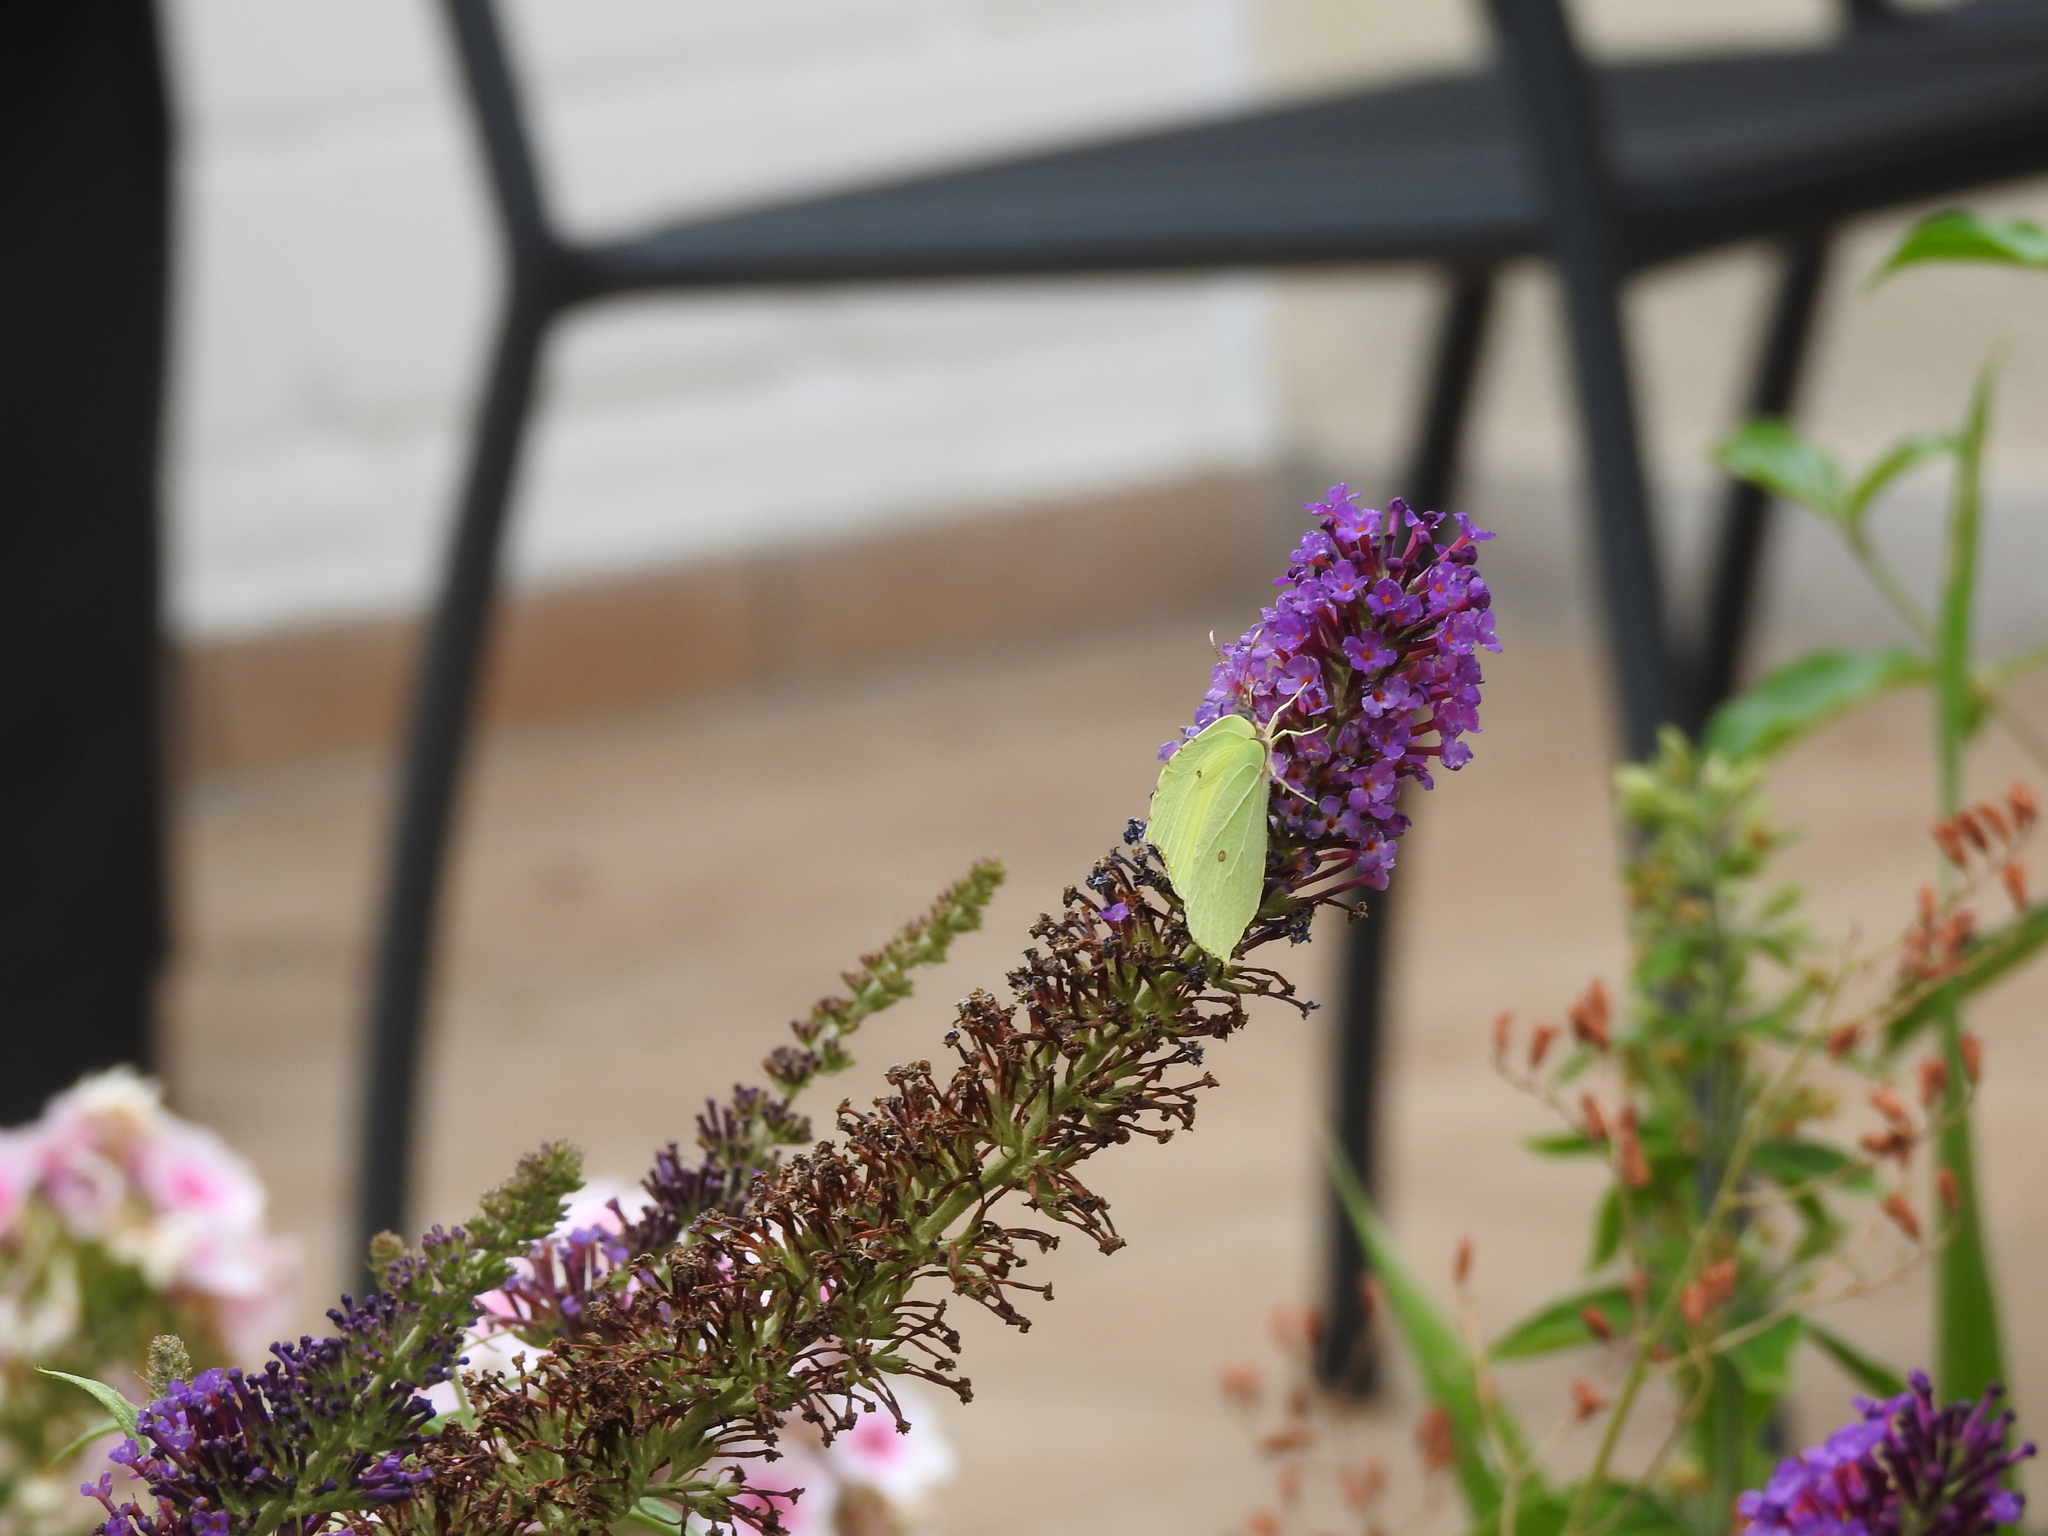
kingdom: Animalia
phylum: Arthropoda
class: Insecta
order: Lepidoptera
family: Pieridae
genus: Gonepteryx
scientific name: Gonepteryx rhamni
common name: Brimstone
